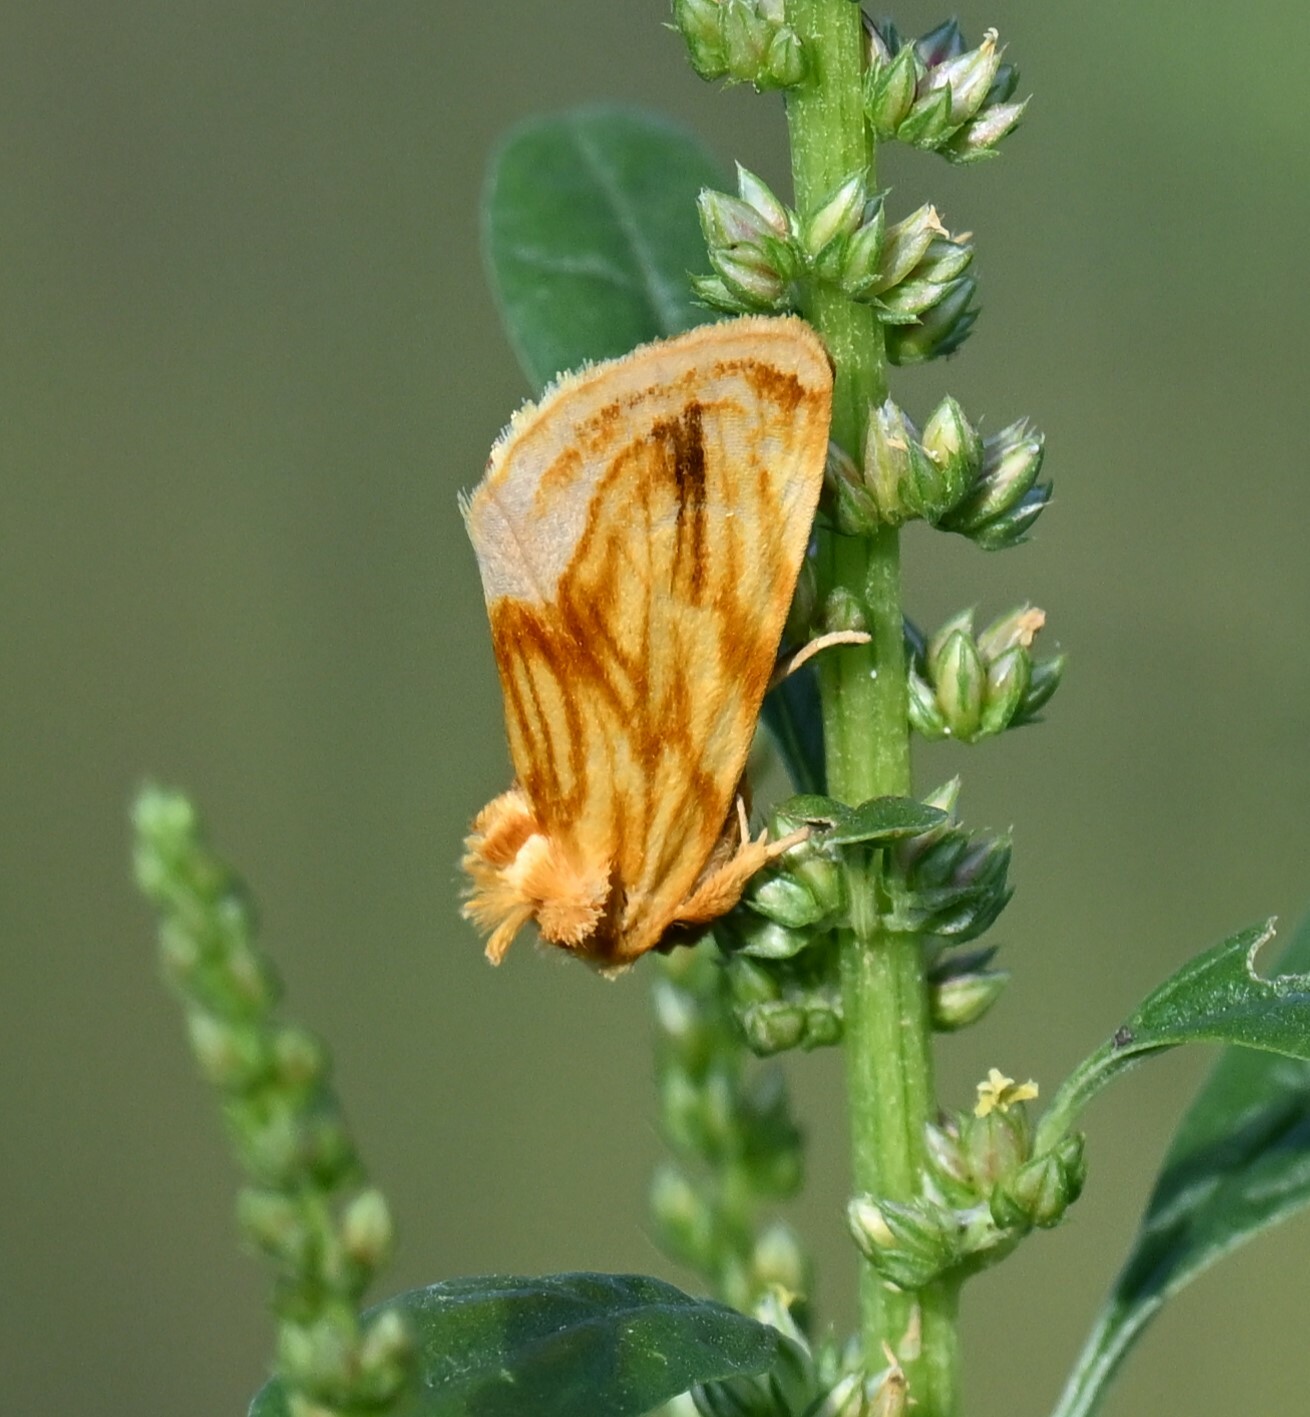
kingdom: Animalia
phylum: Arthropoda
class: Insecta
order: Lepidoptera
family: Noctuidae
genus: Cirrhophanus
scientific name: Cirrhophanus triangulifer
